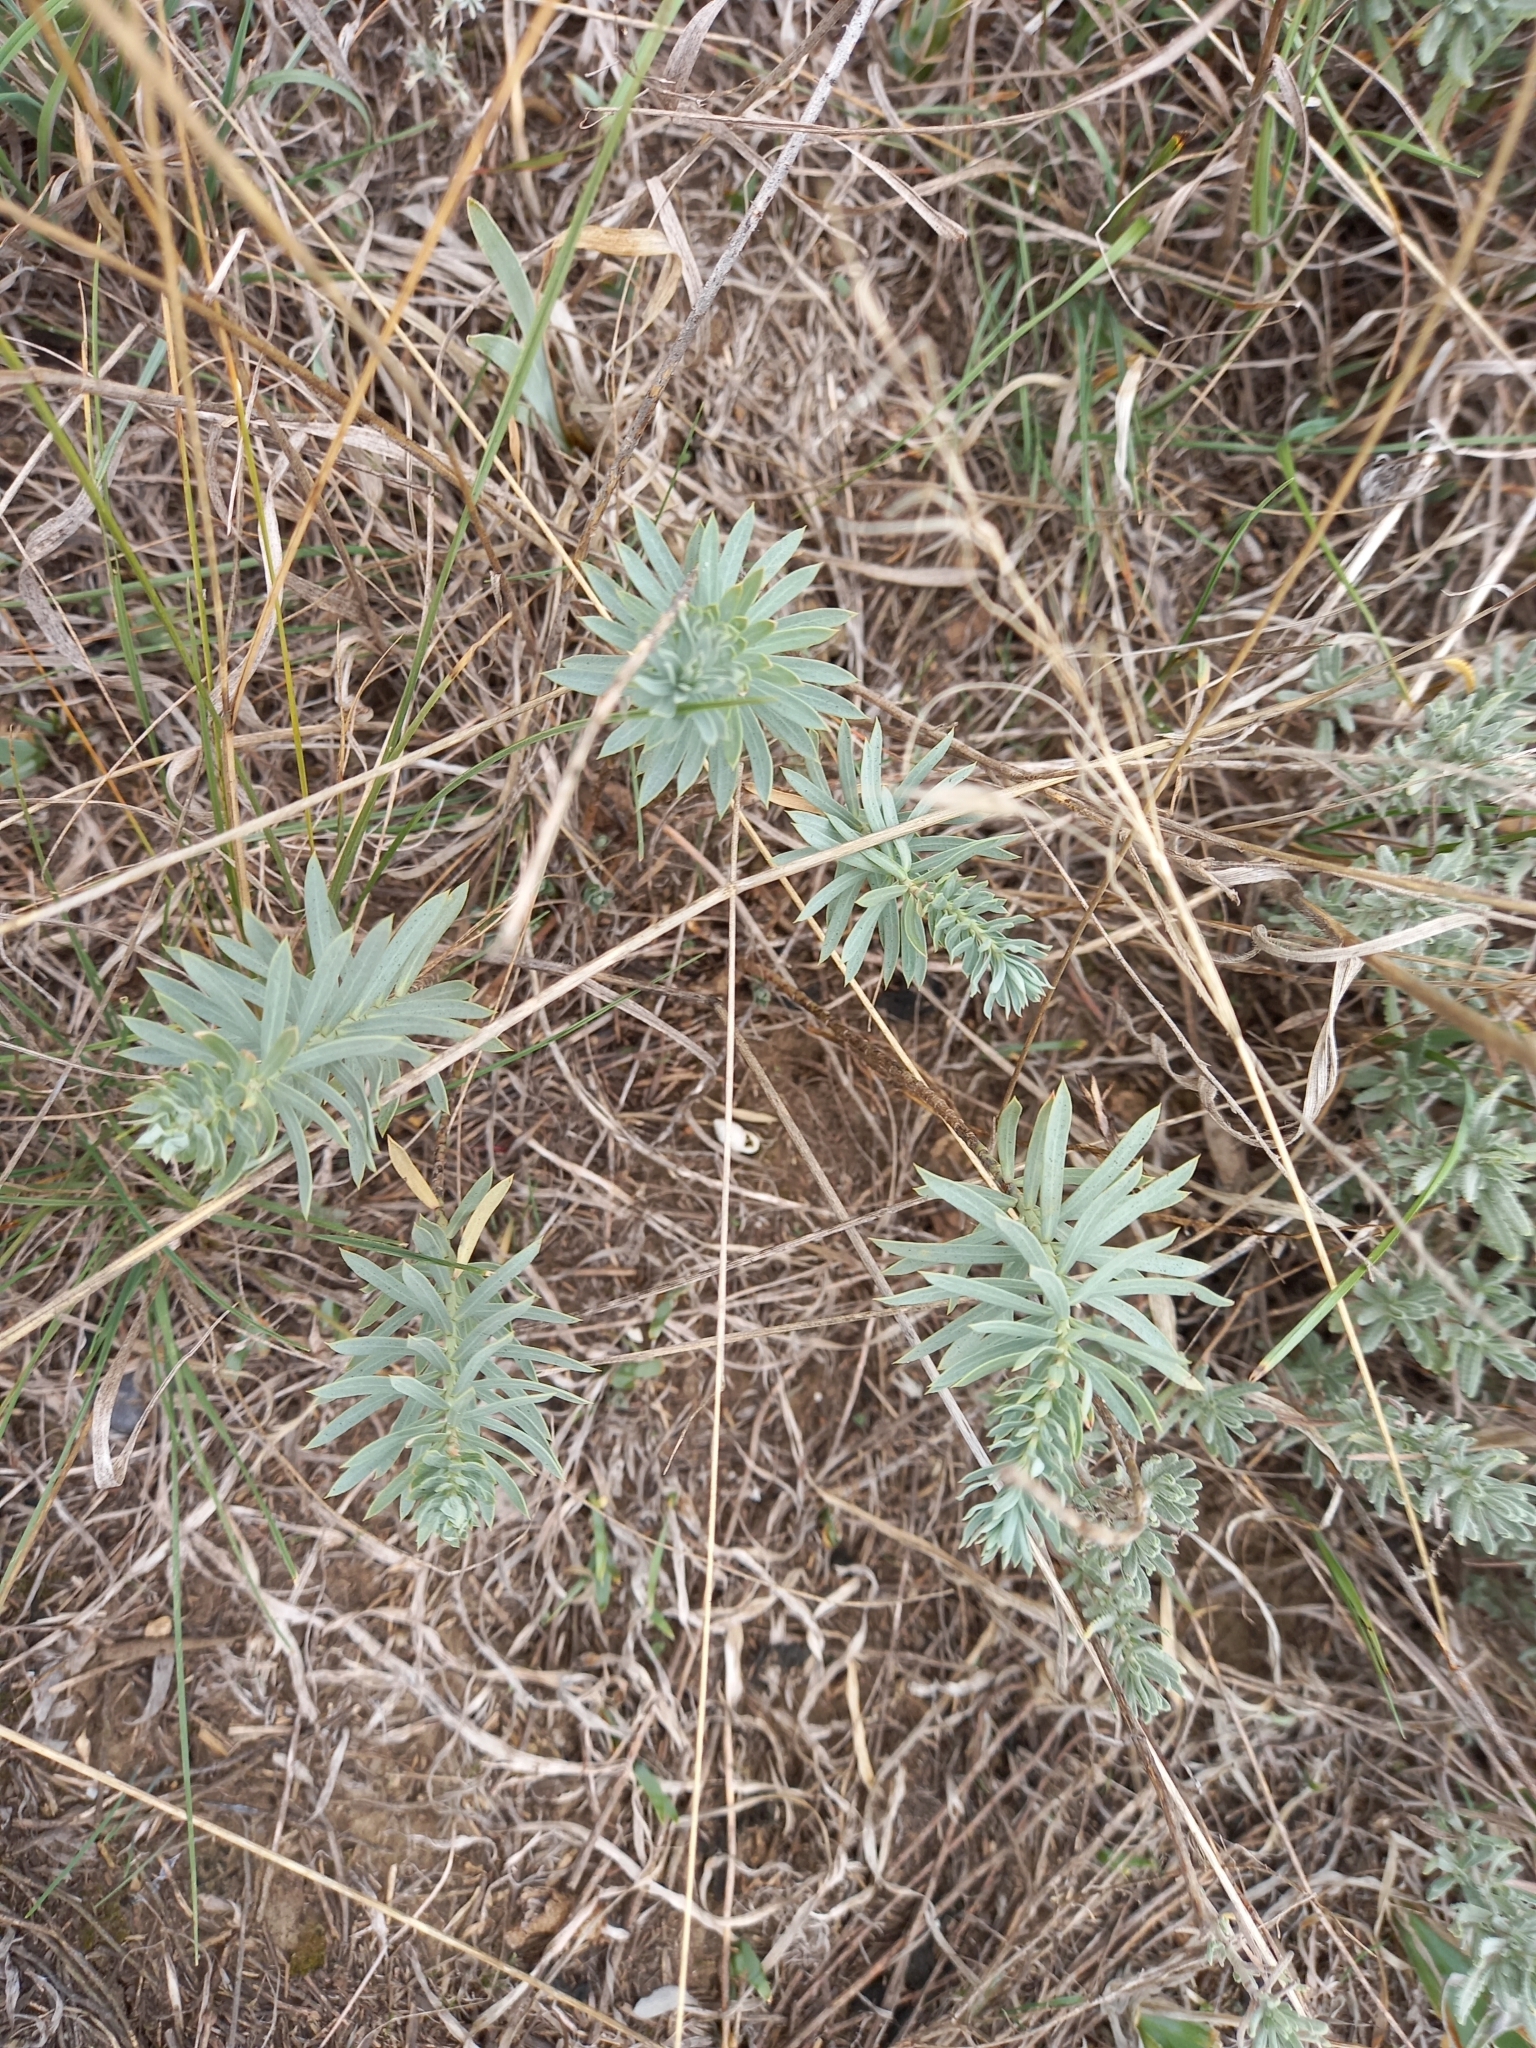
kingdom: Plantae
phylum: Tracheophyta
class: Magnoliopsida
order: Malpighiales
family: Euphorbiaceae
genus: Euphorbia
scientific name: Euphorbia seguieriana
